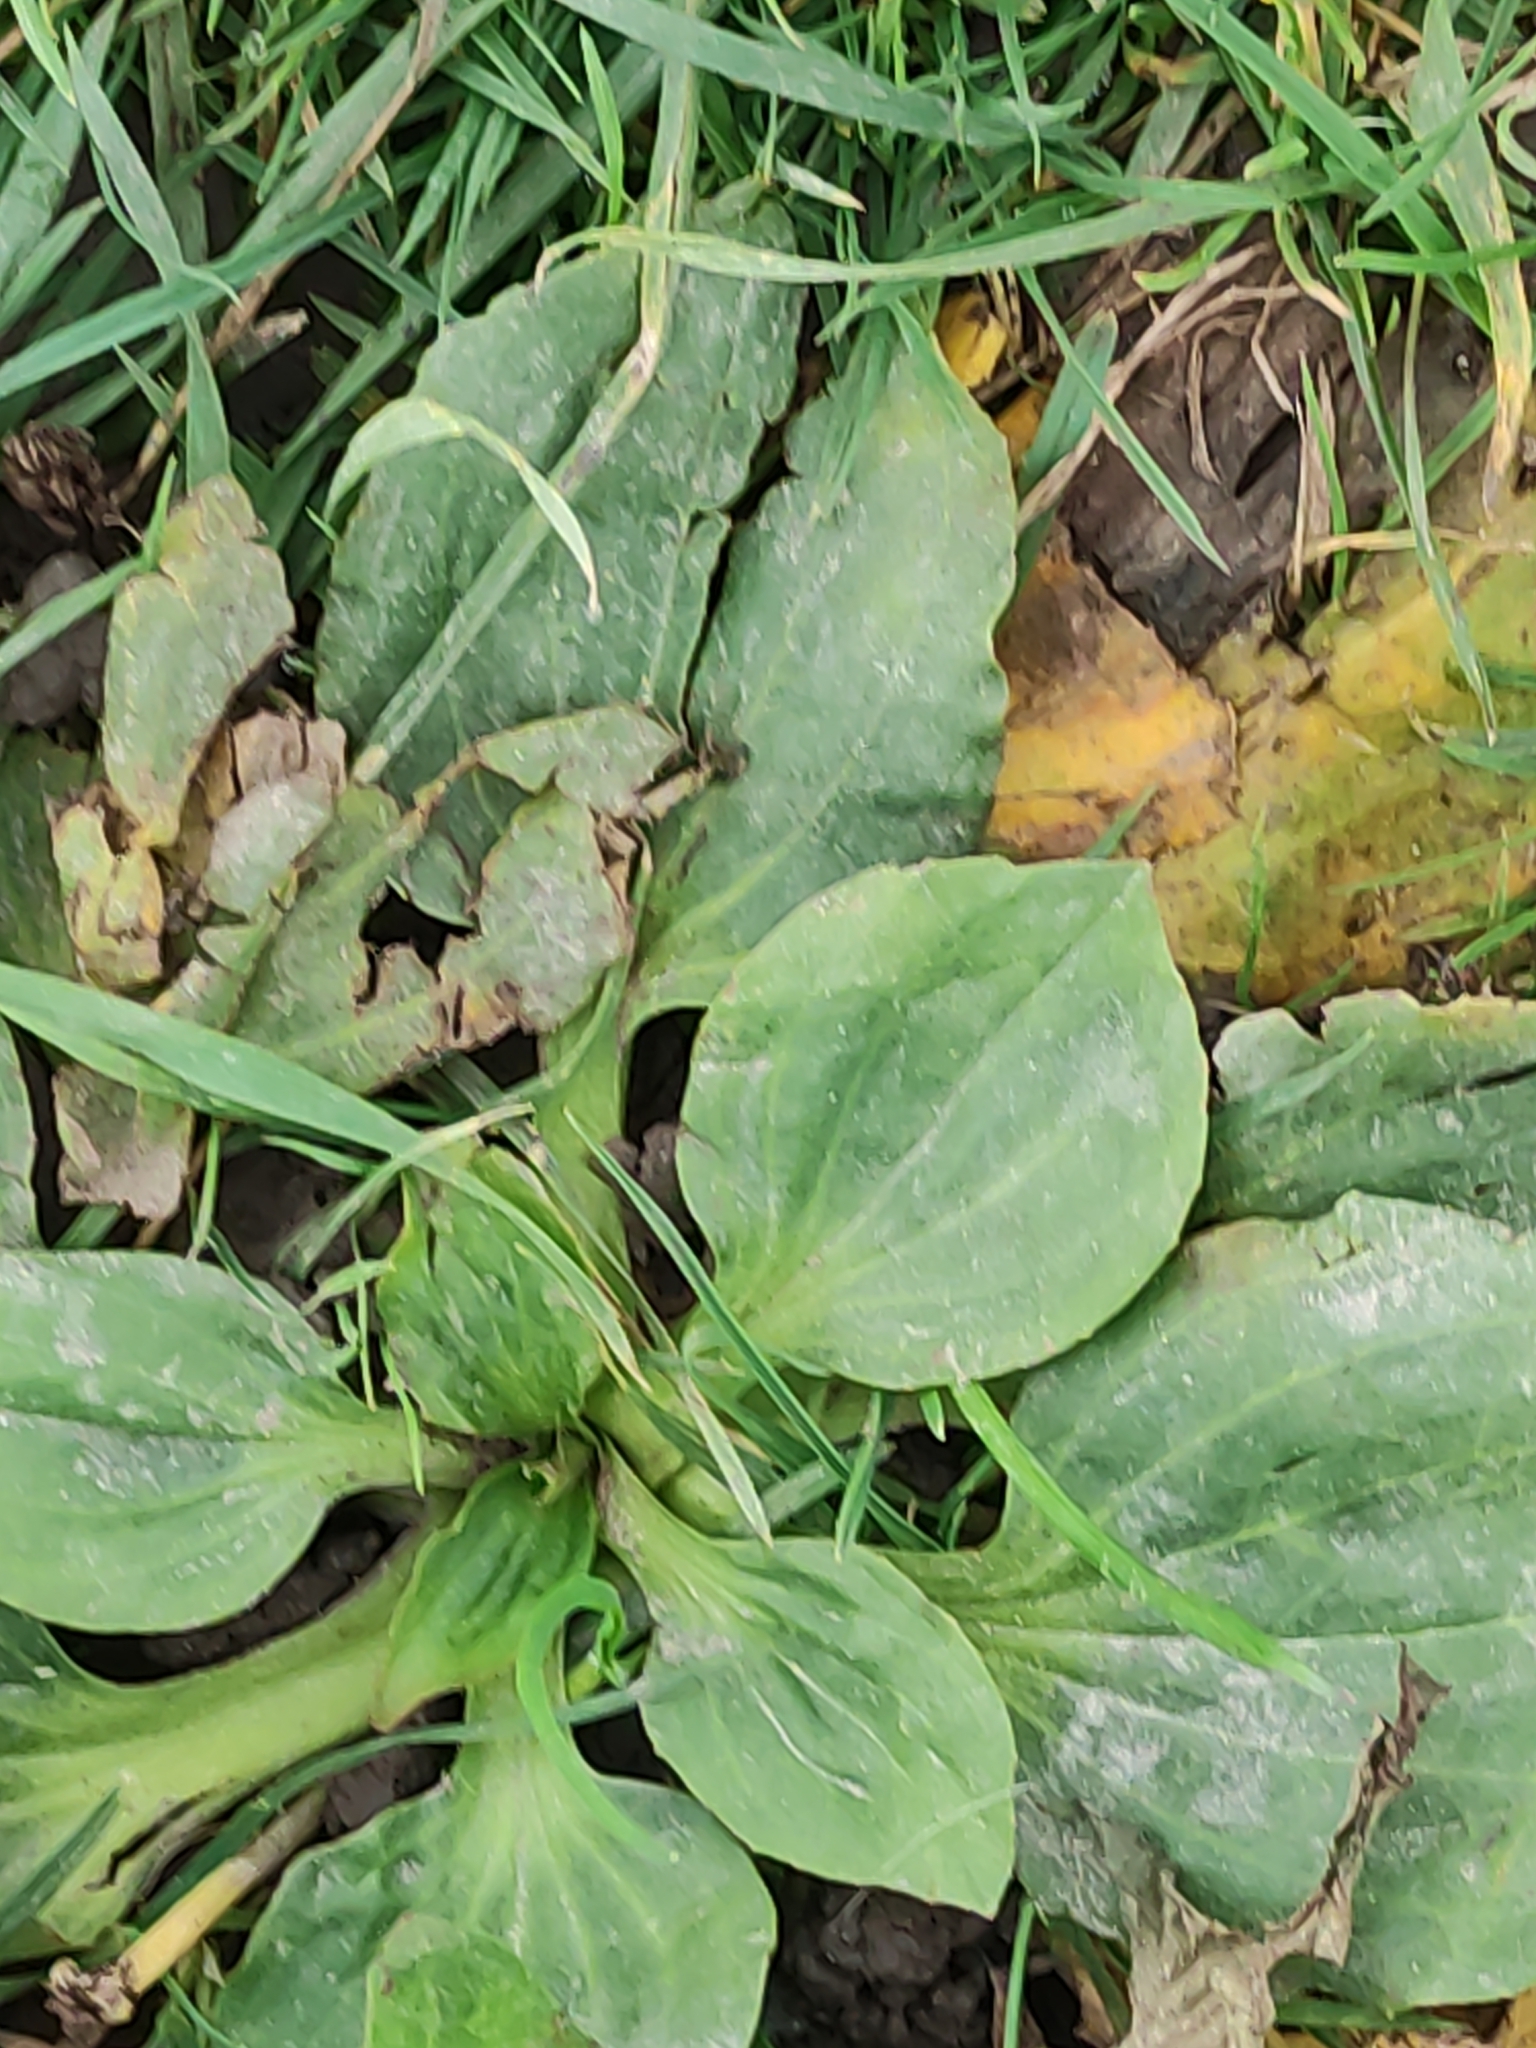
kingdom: Plantae
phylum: Tracheophyta
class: Magnoliopsida
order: Lamiales
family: Plantaginaceae
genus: Plantago
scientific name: Plantago major
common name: Common plantain
